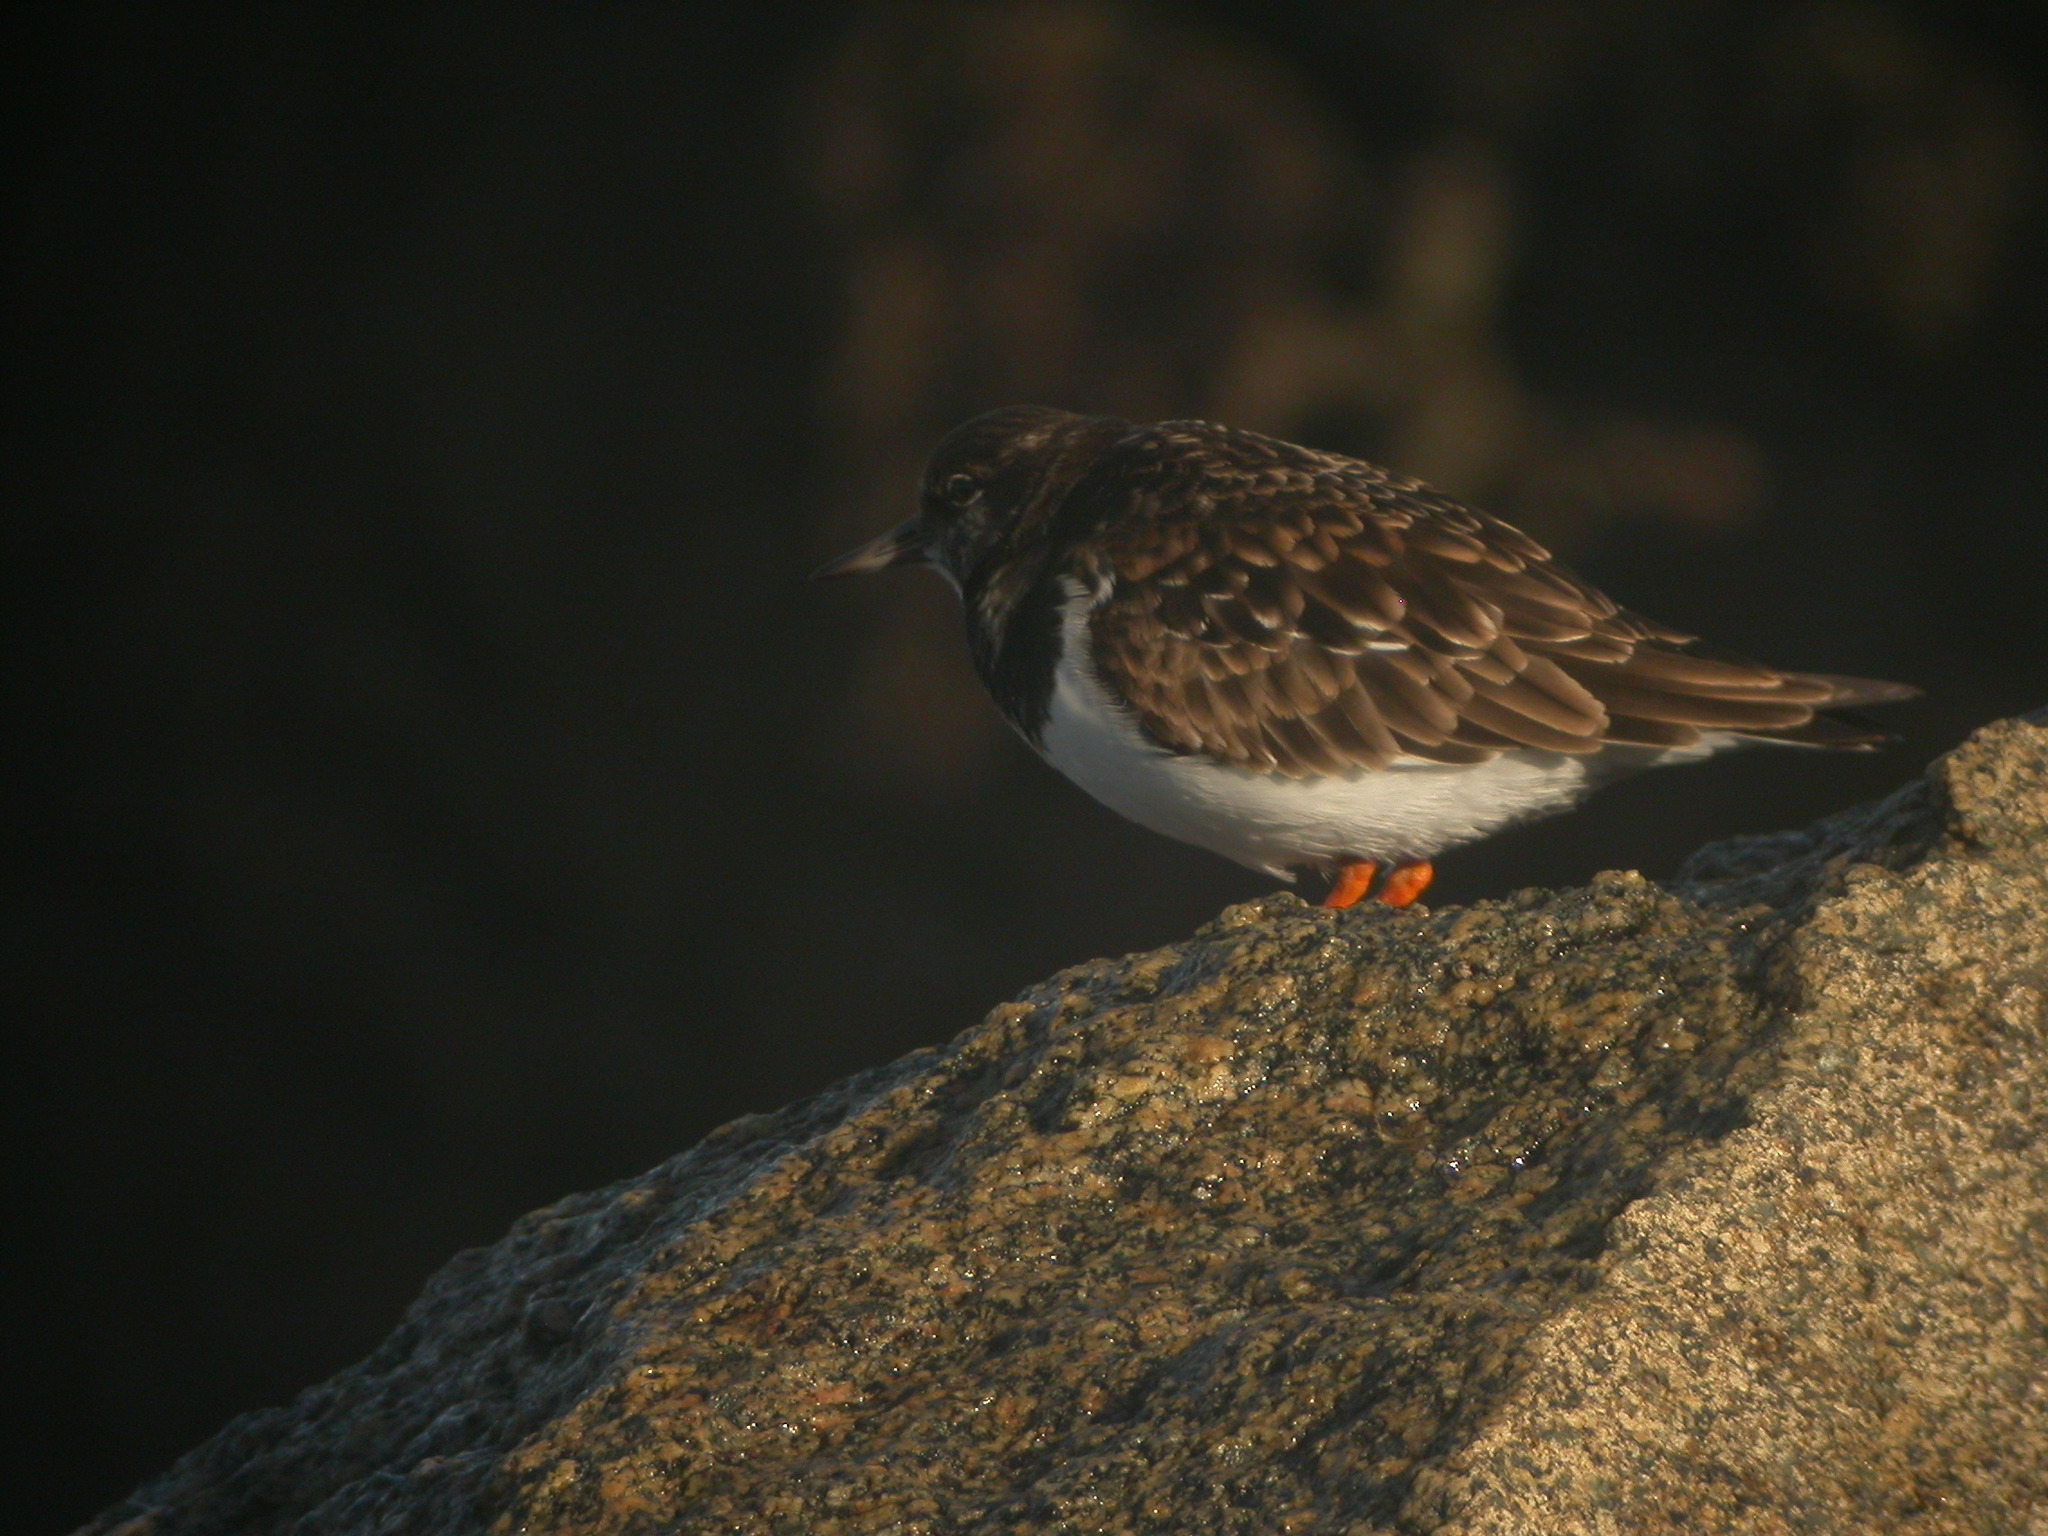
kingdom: Animalia
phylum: Chordata
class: Aves
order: Charadriiformes
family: Scolopacidae
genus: Arenaria
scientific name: Arenaria interpres
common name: Ruddy turnstone
